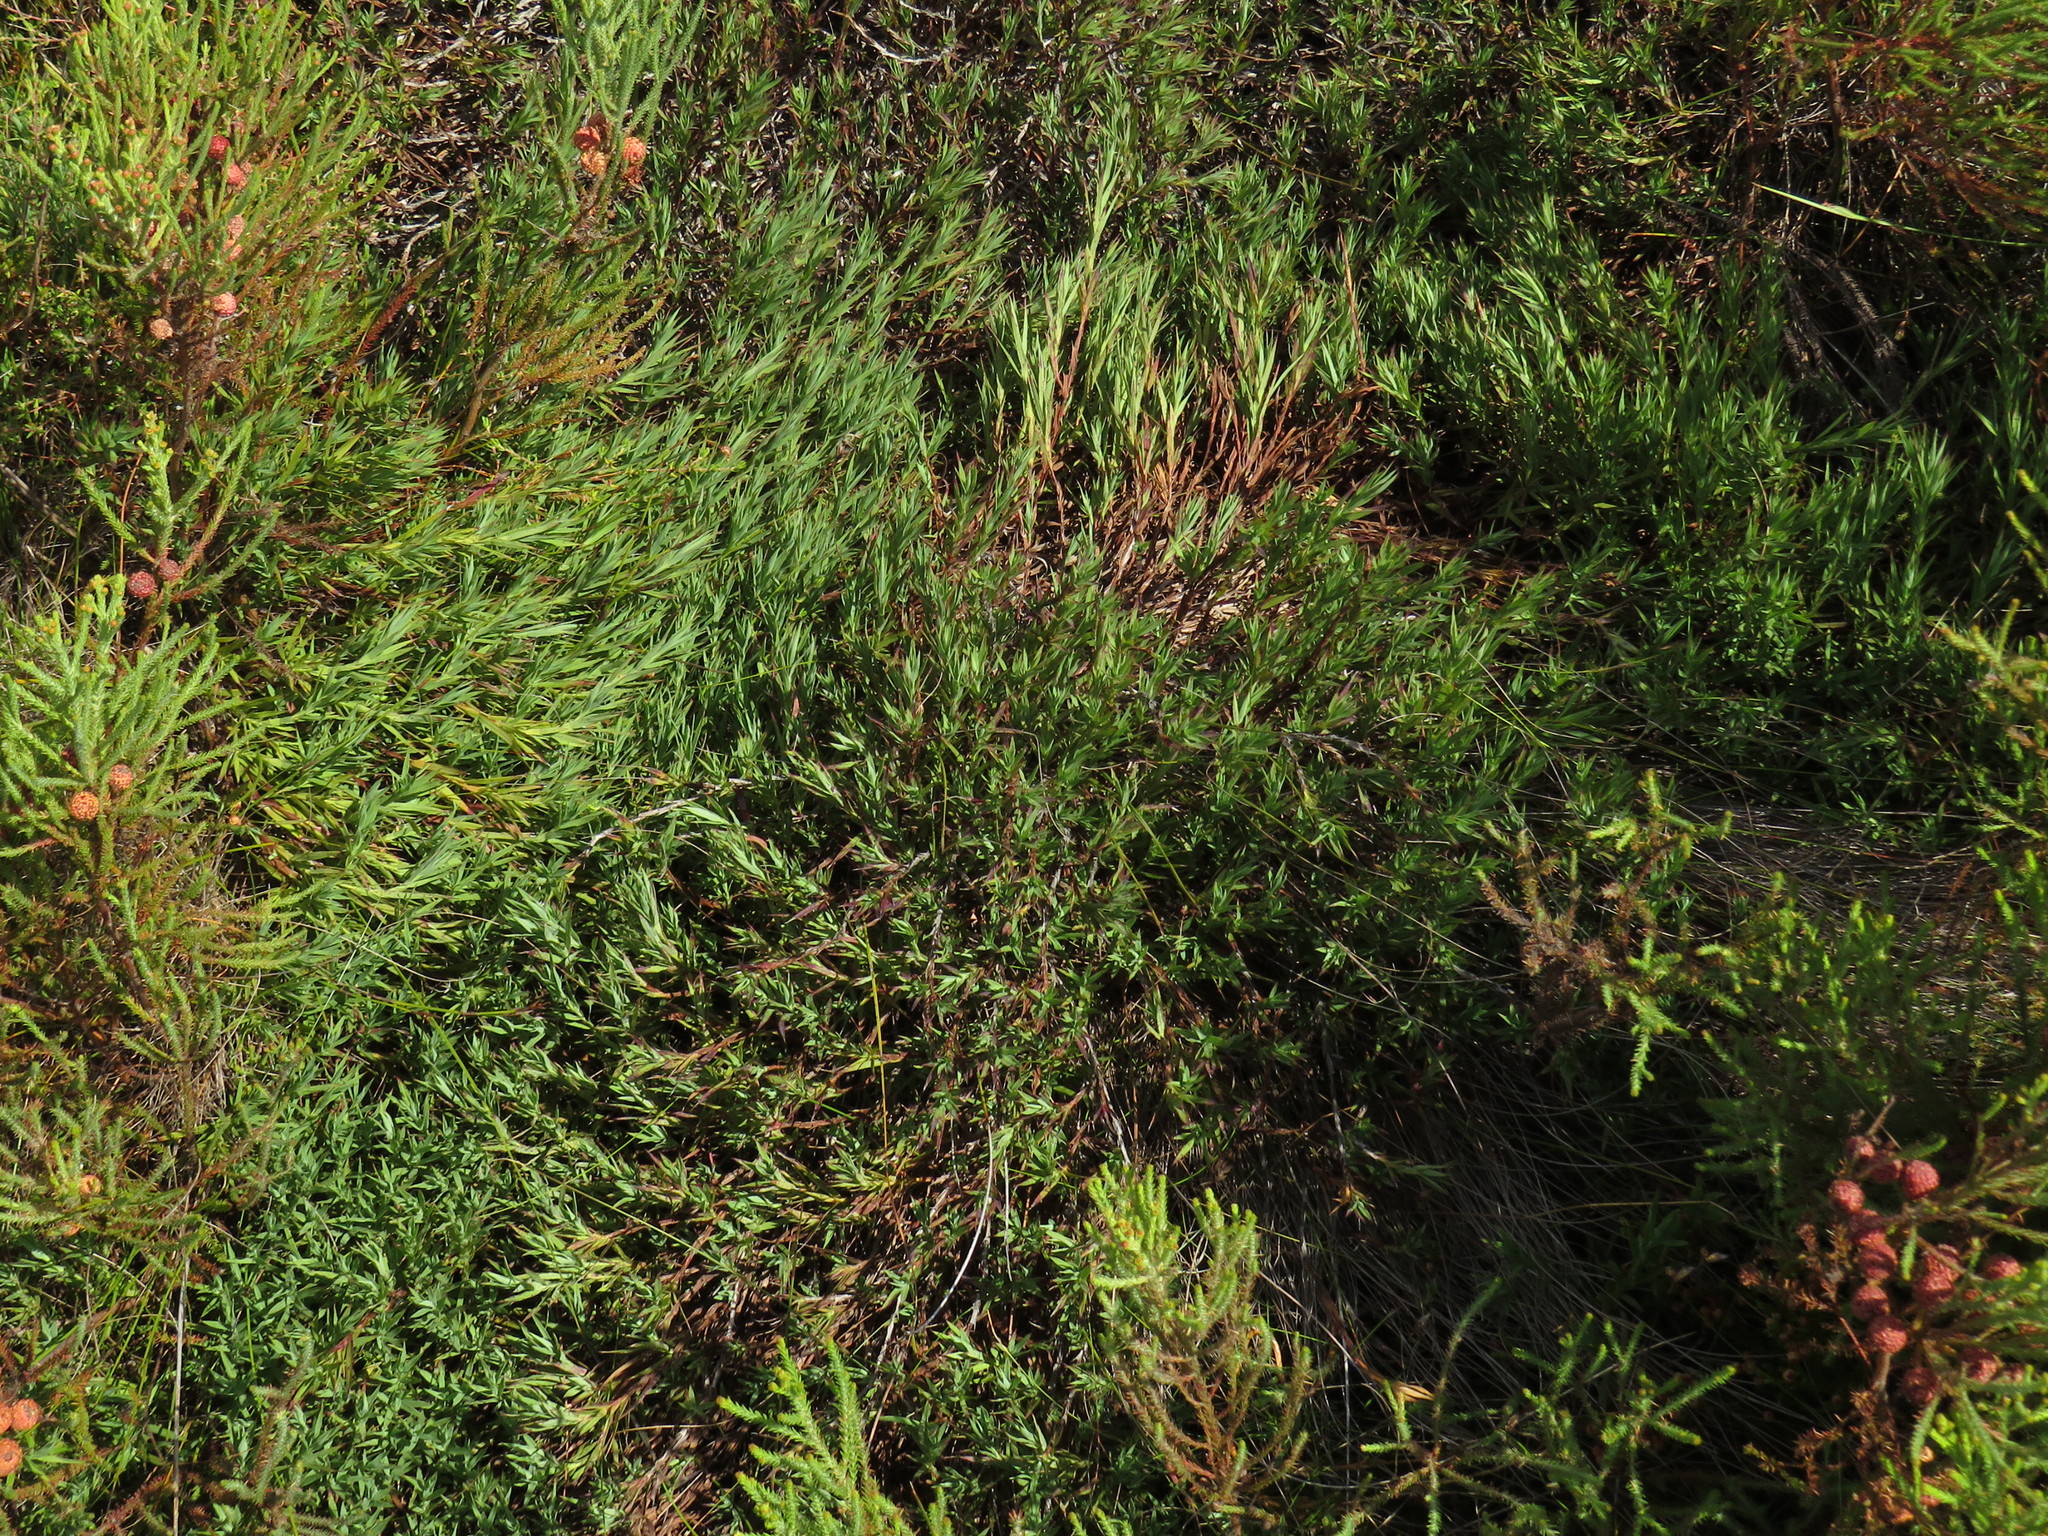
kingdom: Plantae
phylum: Tracheophyta
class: Magnoliopsida
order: Rosales
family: Rosaceae
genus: Cliffortia
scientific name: Cliffortia graminea
